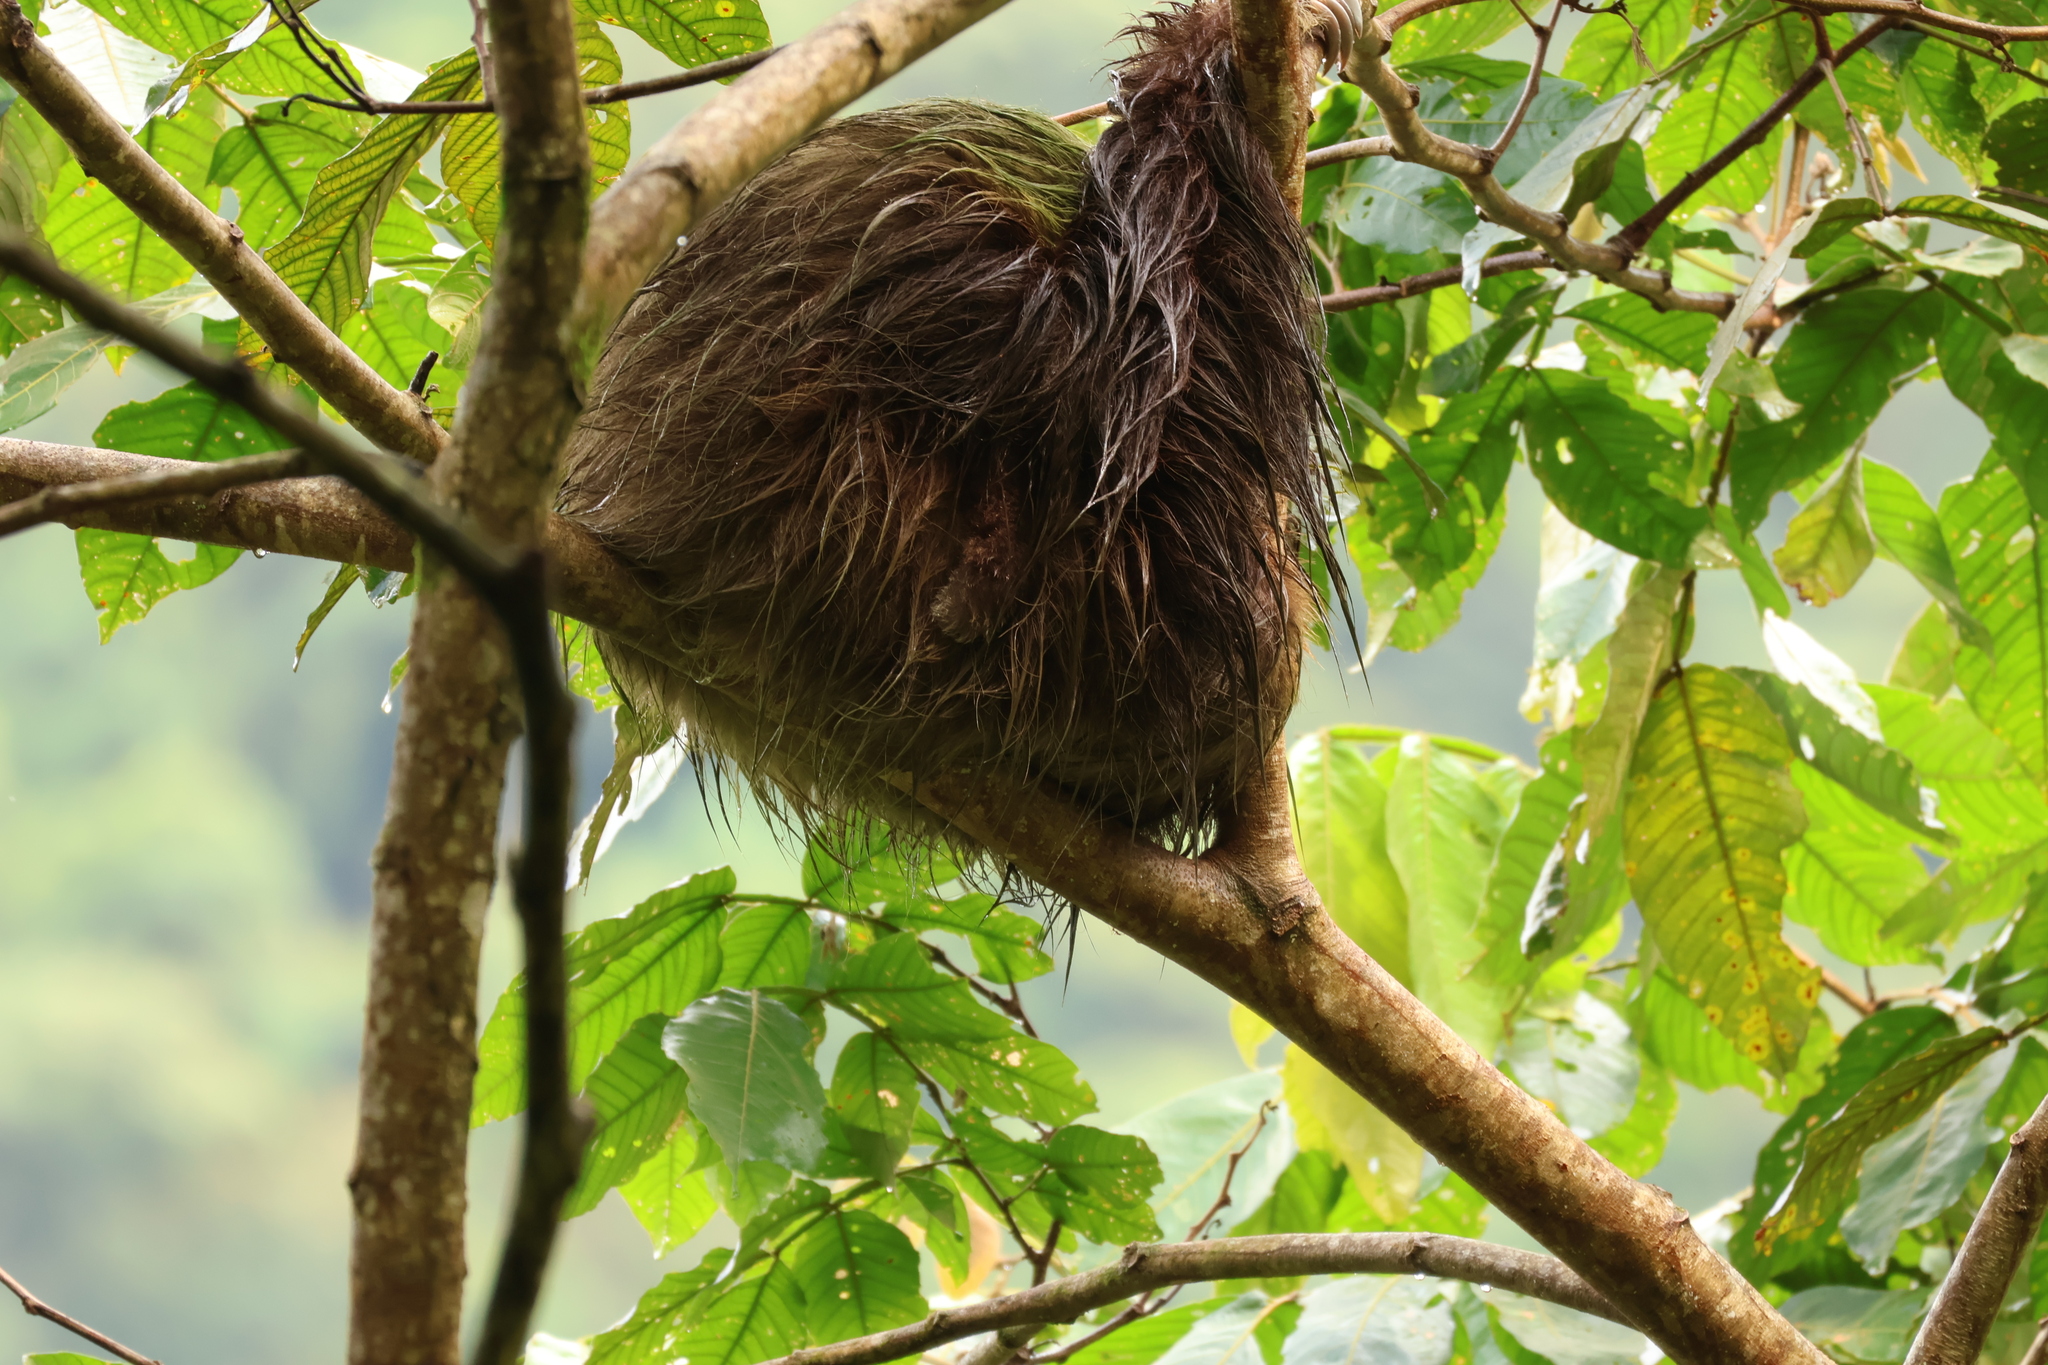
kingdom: Animalia
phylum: Chordata
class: Mammalia
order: Pilosa
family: Bradypodidae
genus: Bradypus
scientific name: Bradypus variegatus
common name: Brown-throated three-toed sloth
